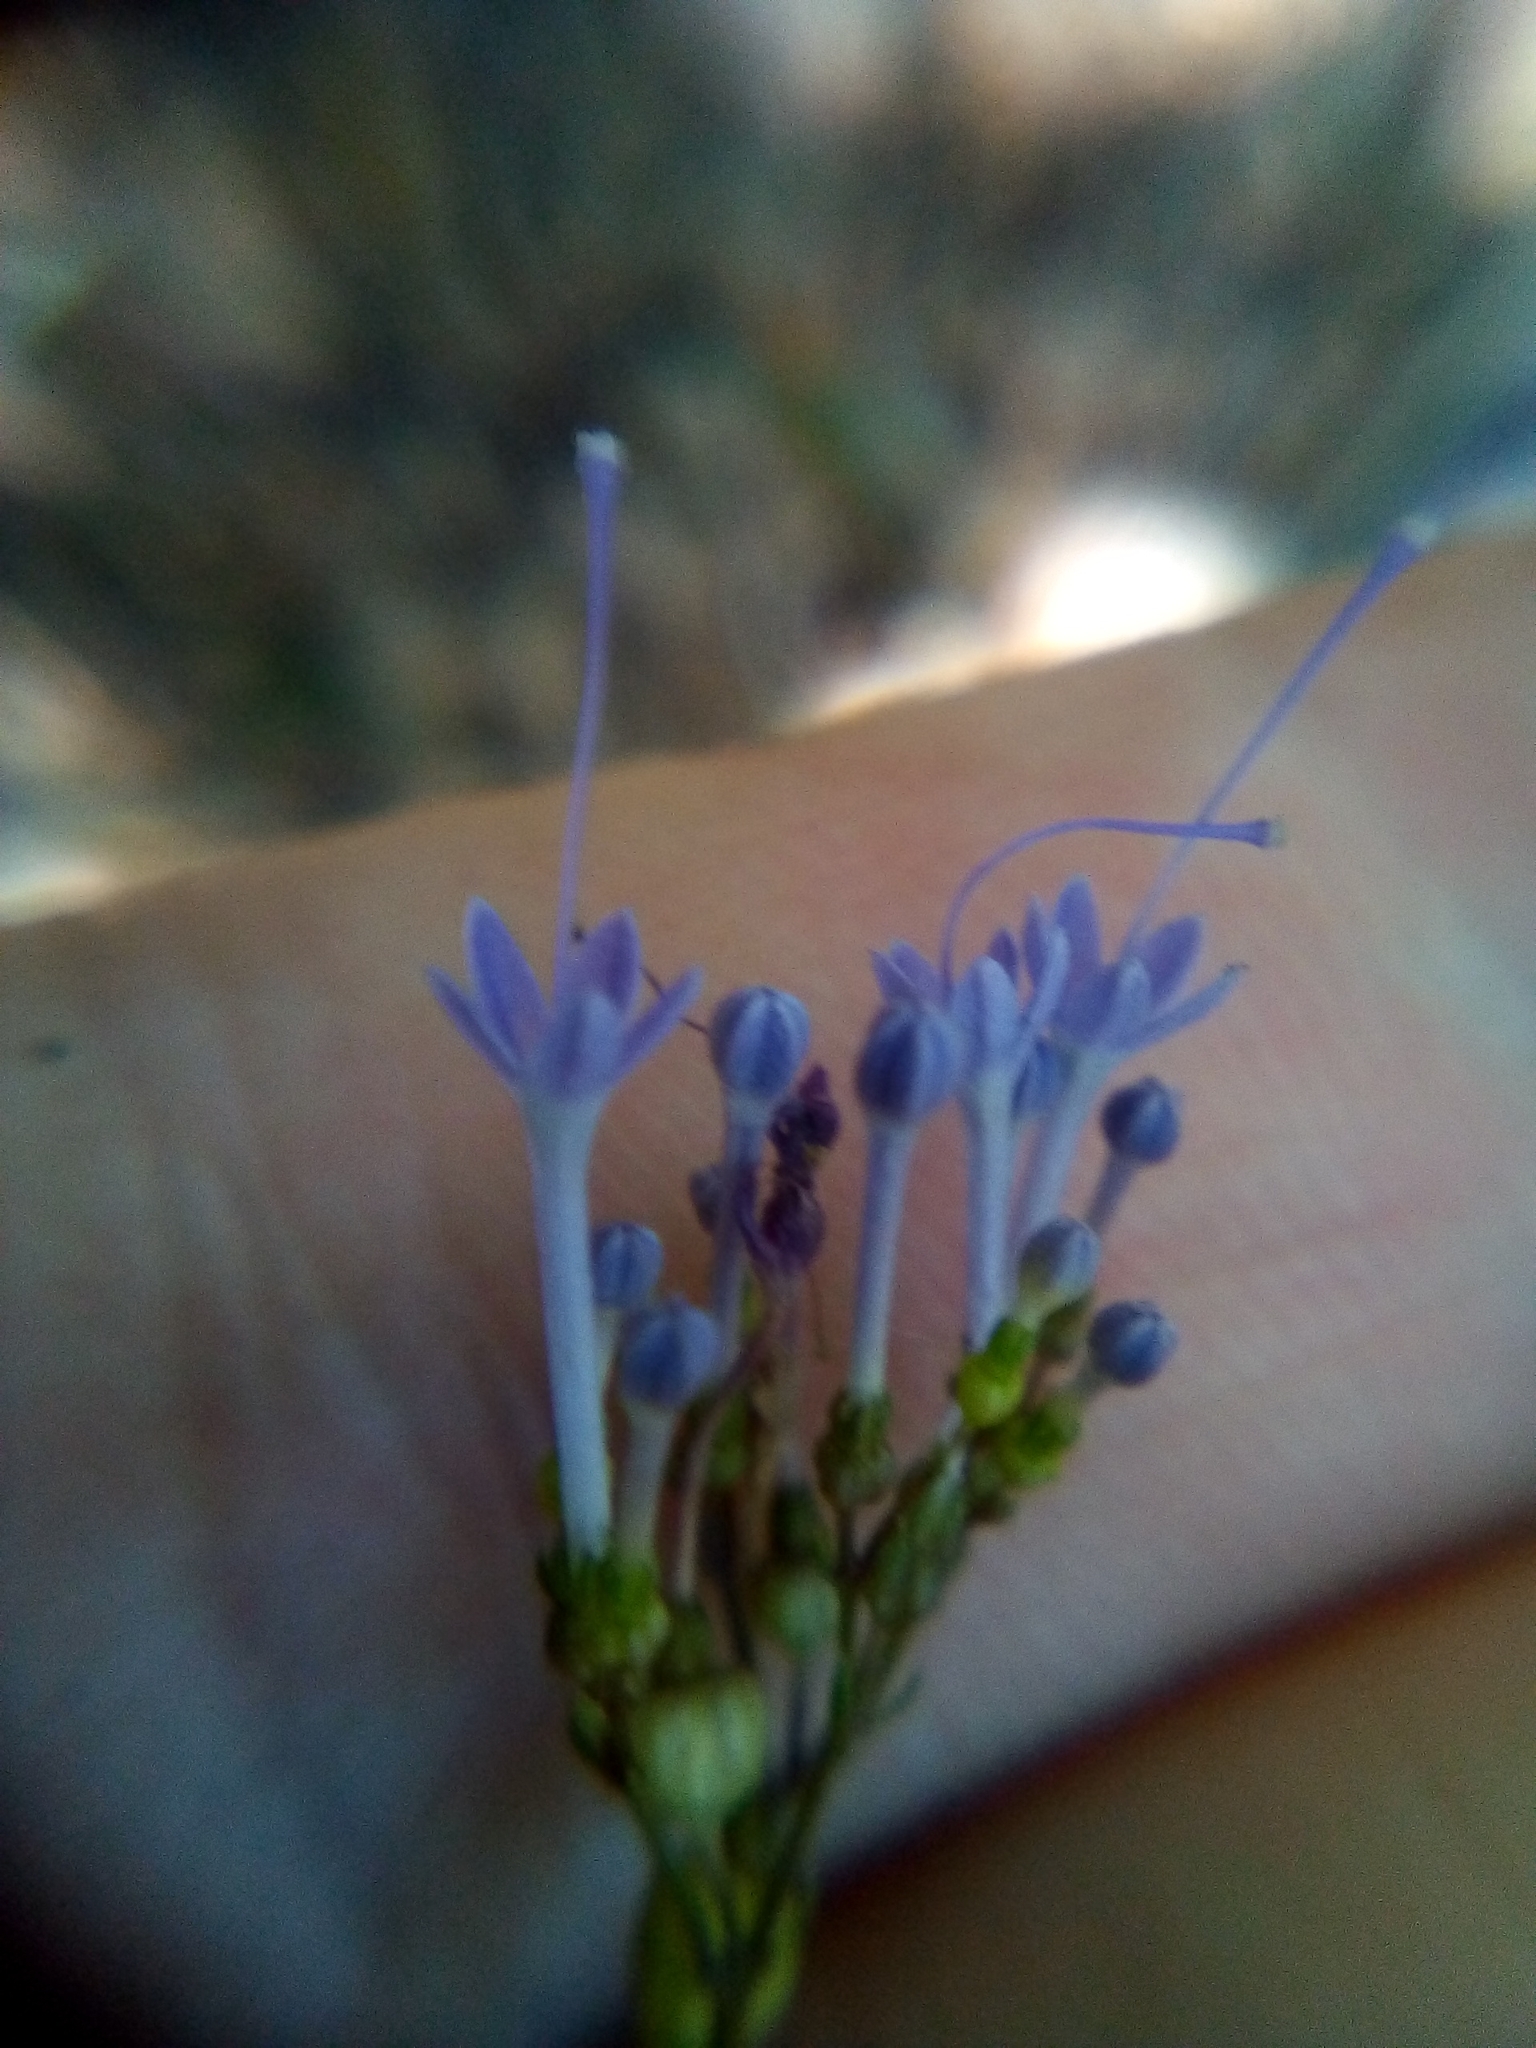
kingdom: Plantae
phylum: Tracheophyta
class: Magnoliopsida
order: Asterales
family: Campanulaceae
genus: Trachelium
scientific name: Trachelium caeruleum
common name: Throatwort
